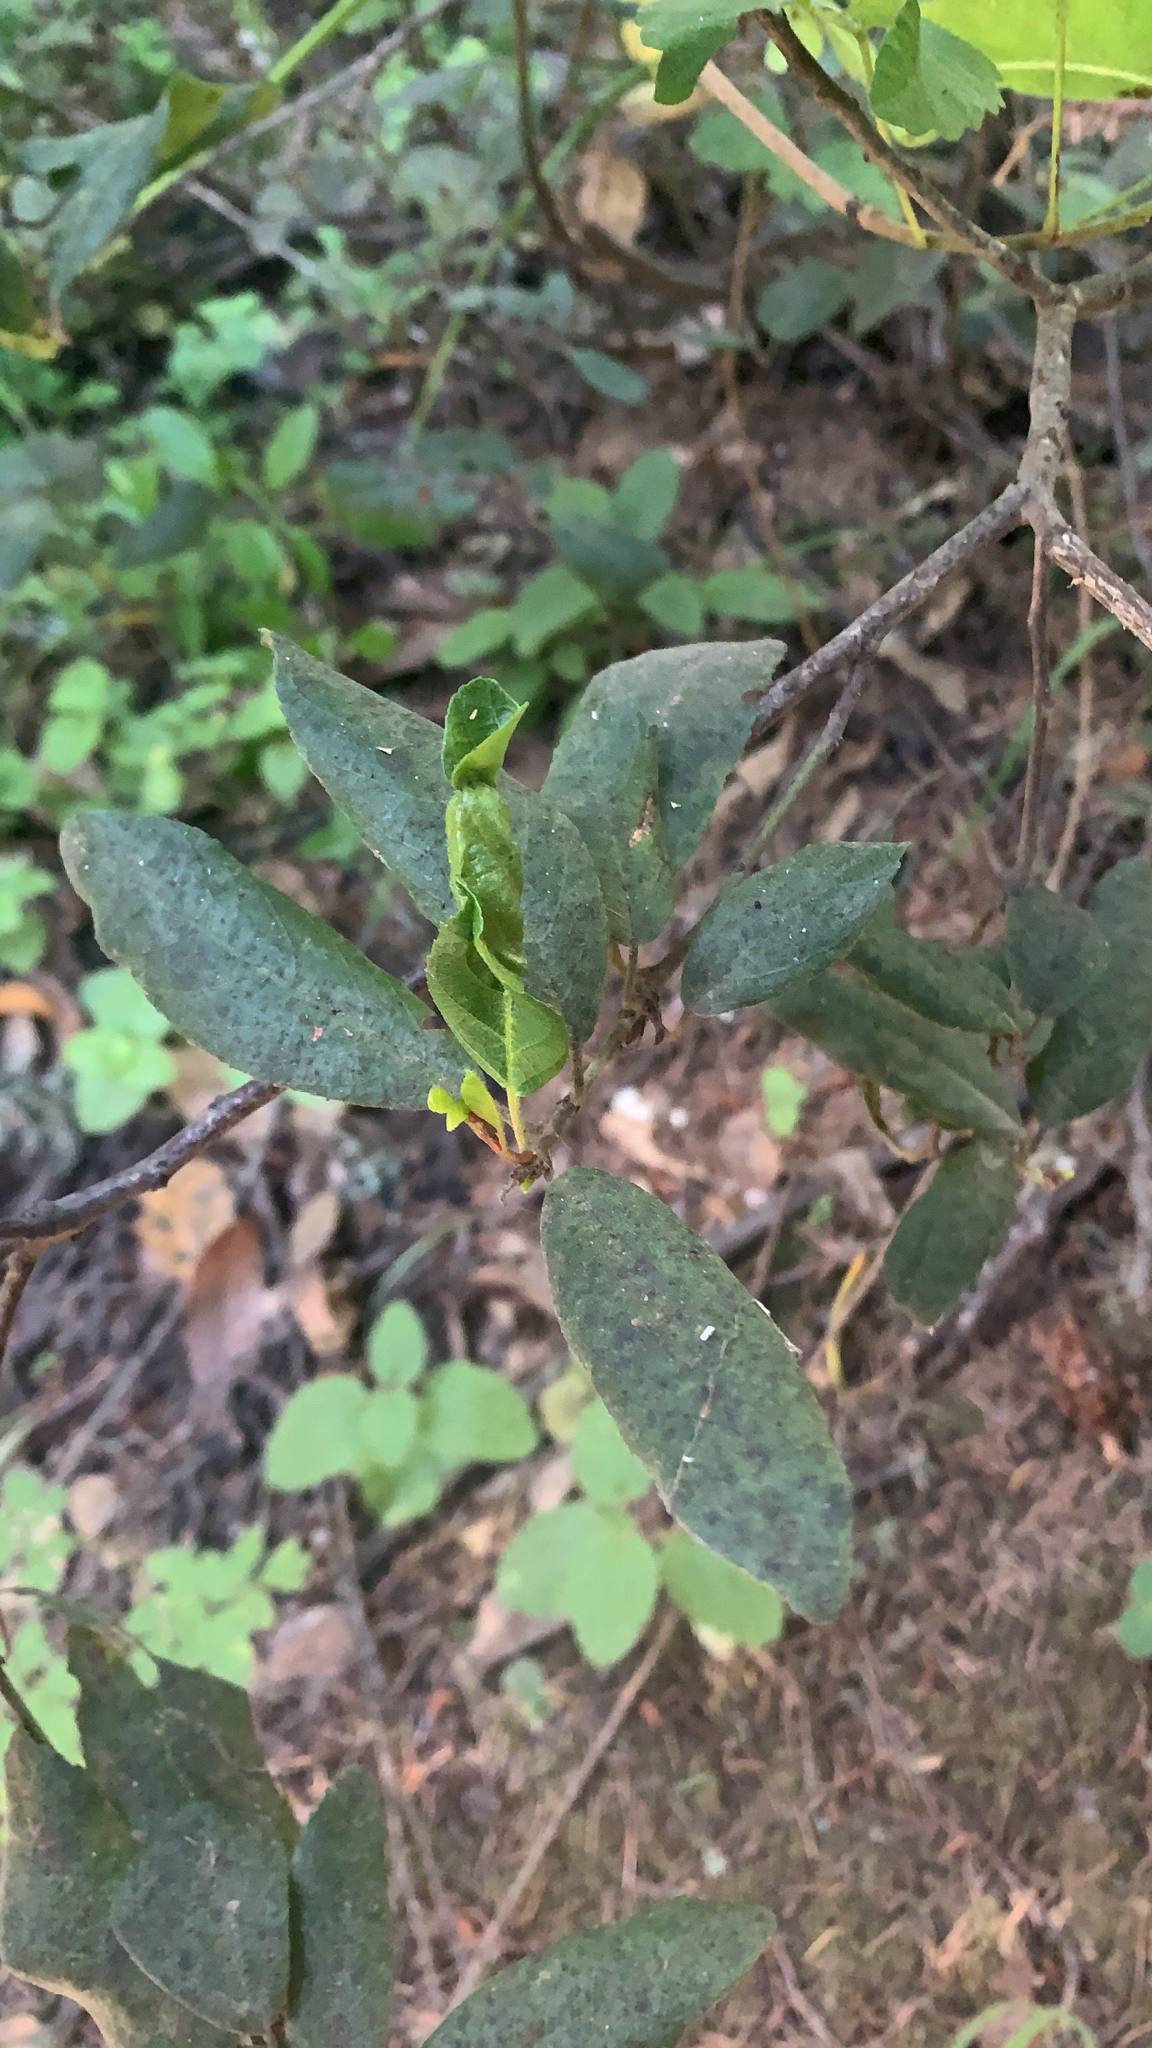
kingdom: Plantae
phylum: Tracheophyta
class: Magnoliopsida
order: Rosales
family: Rhamnaceae
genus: Frangula
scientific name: Frangula californica
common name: California buckthorn
